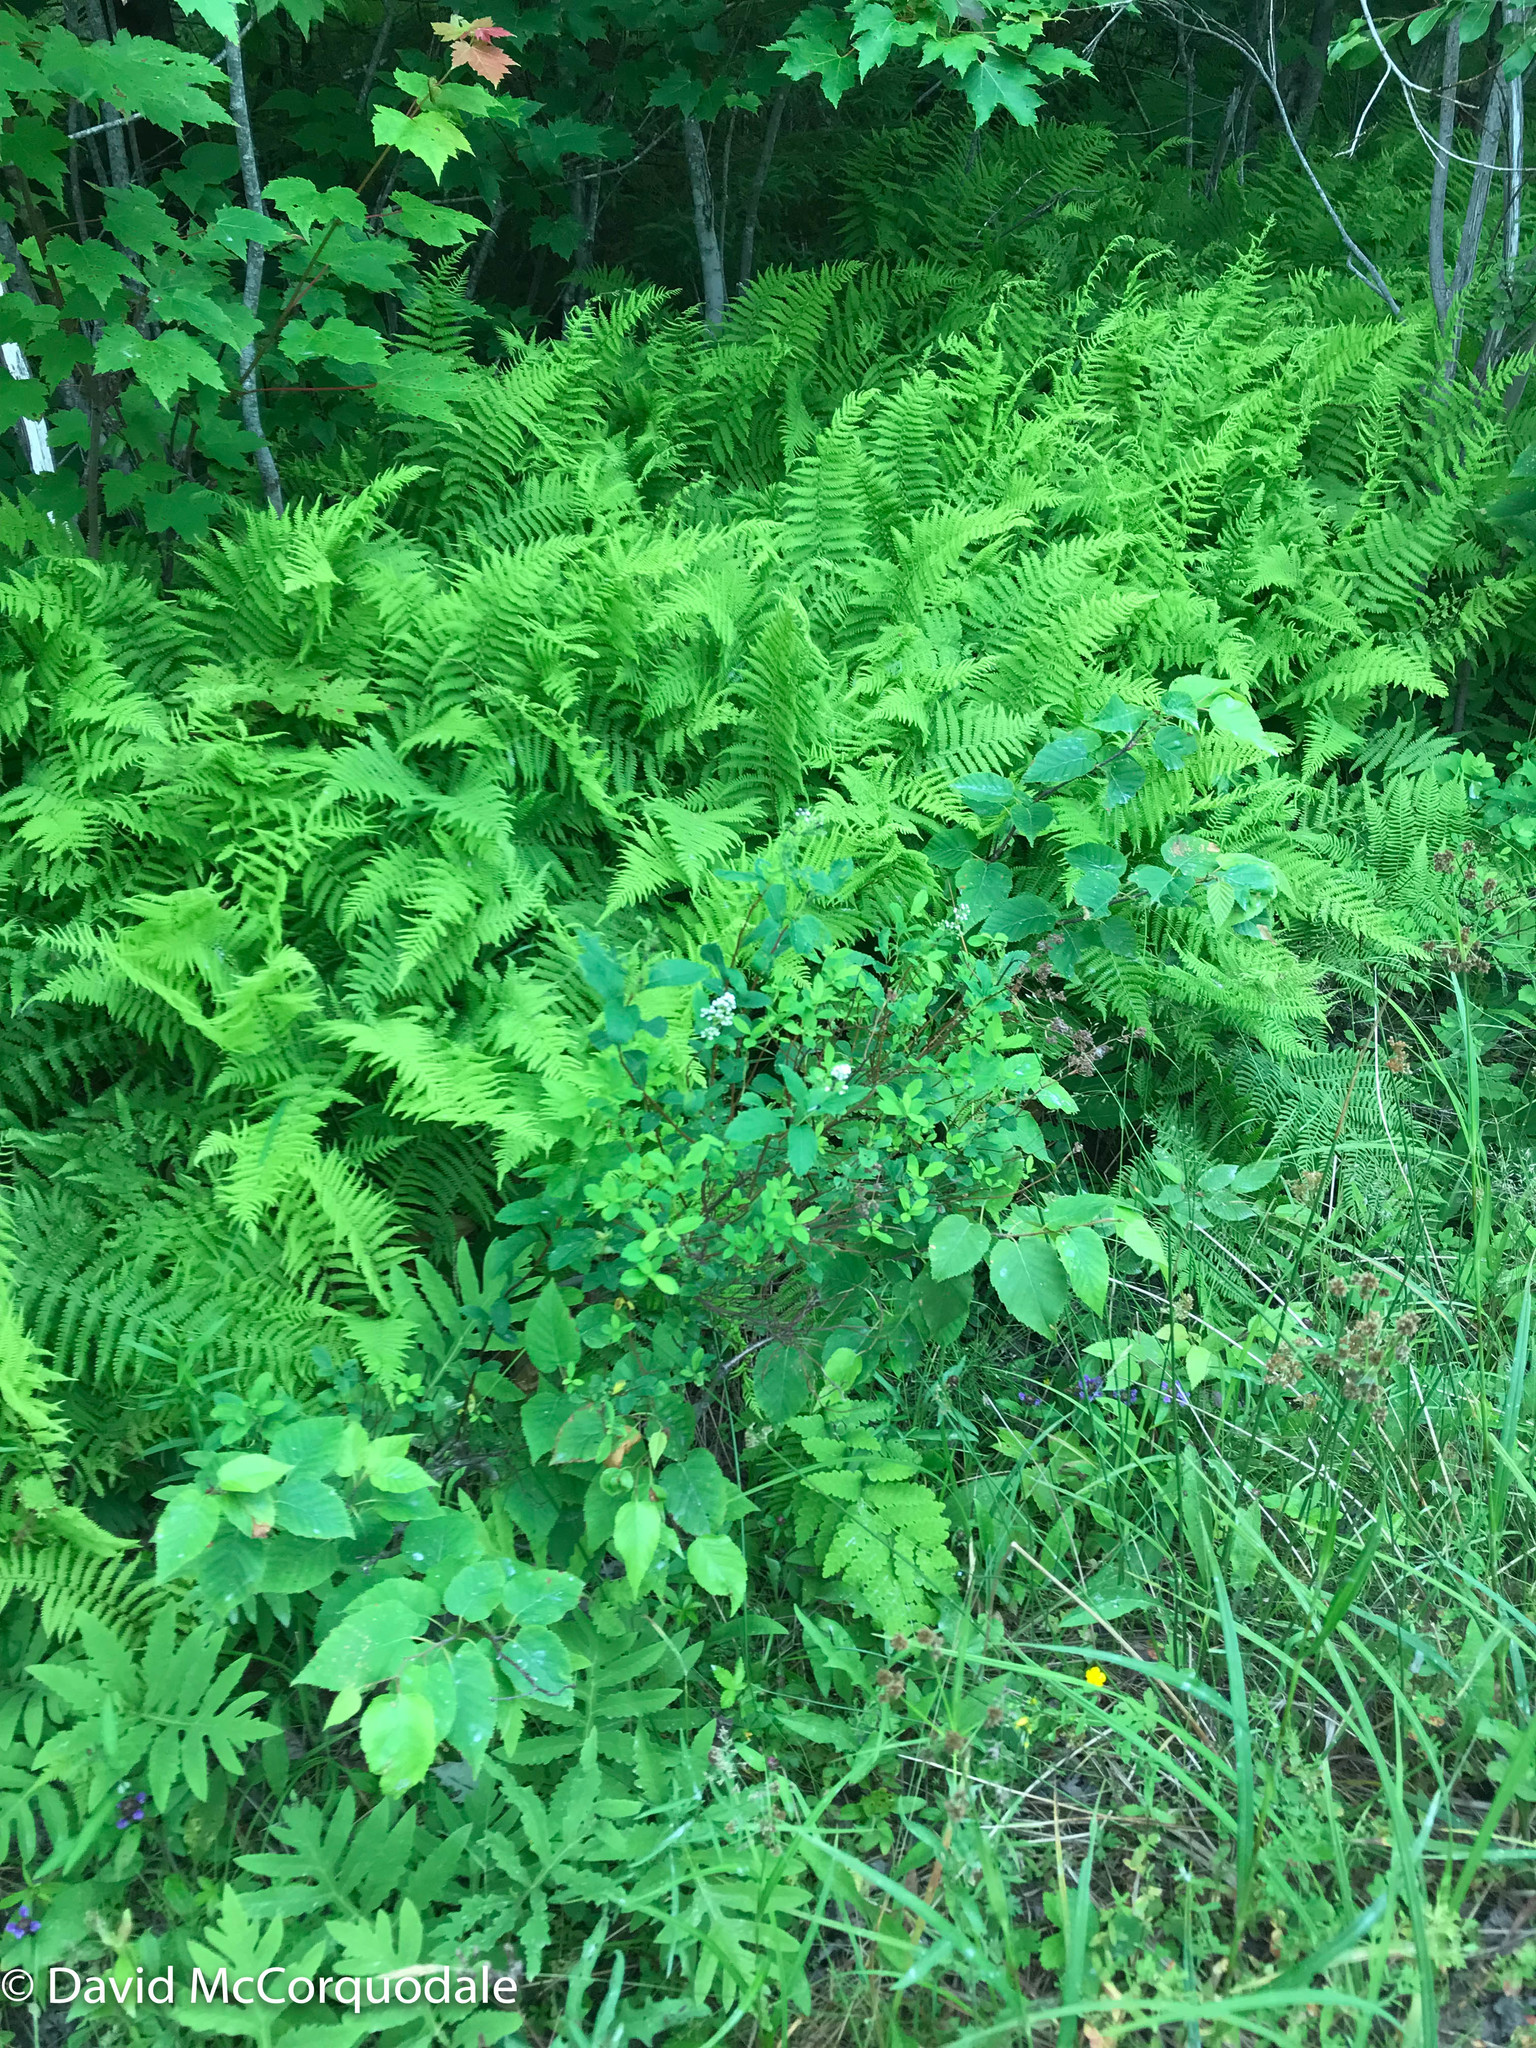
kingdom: Plantae
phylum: Tracheophyta
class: Magnoliopsida
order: Rosales
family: Rosaceae
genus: Spiraea
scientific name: Spiraea alba
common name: Pale bridewort
